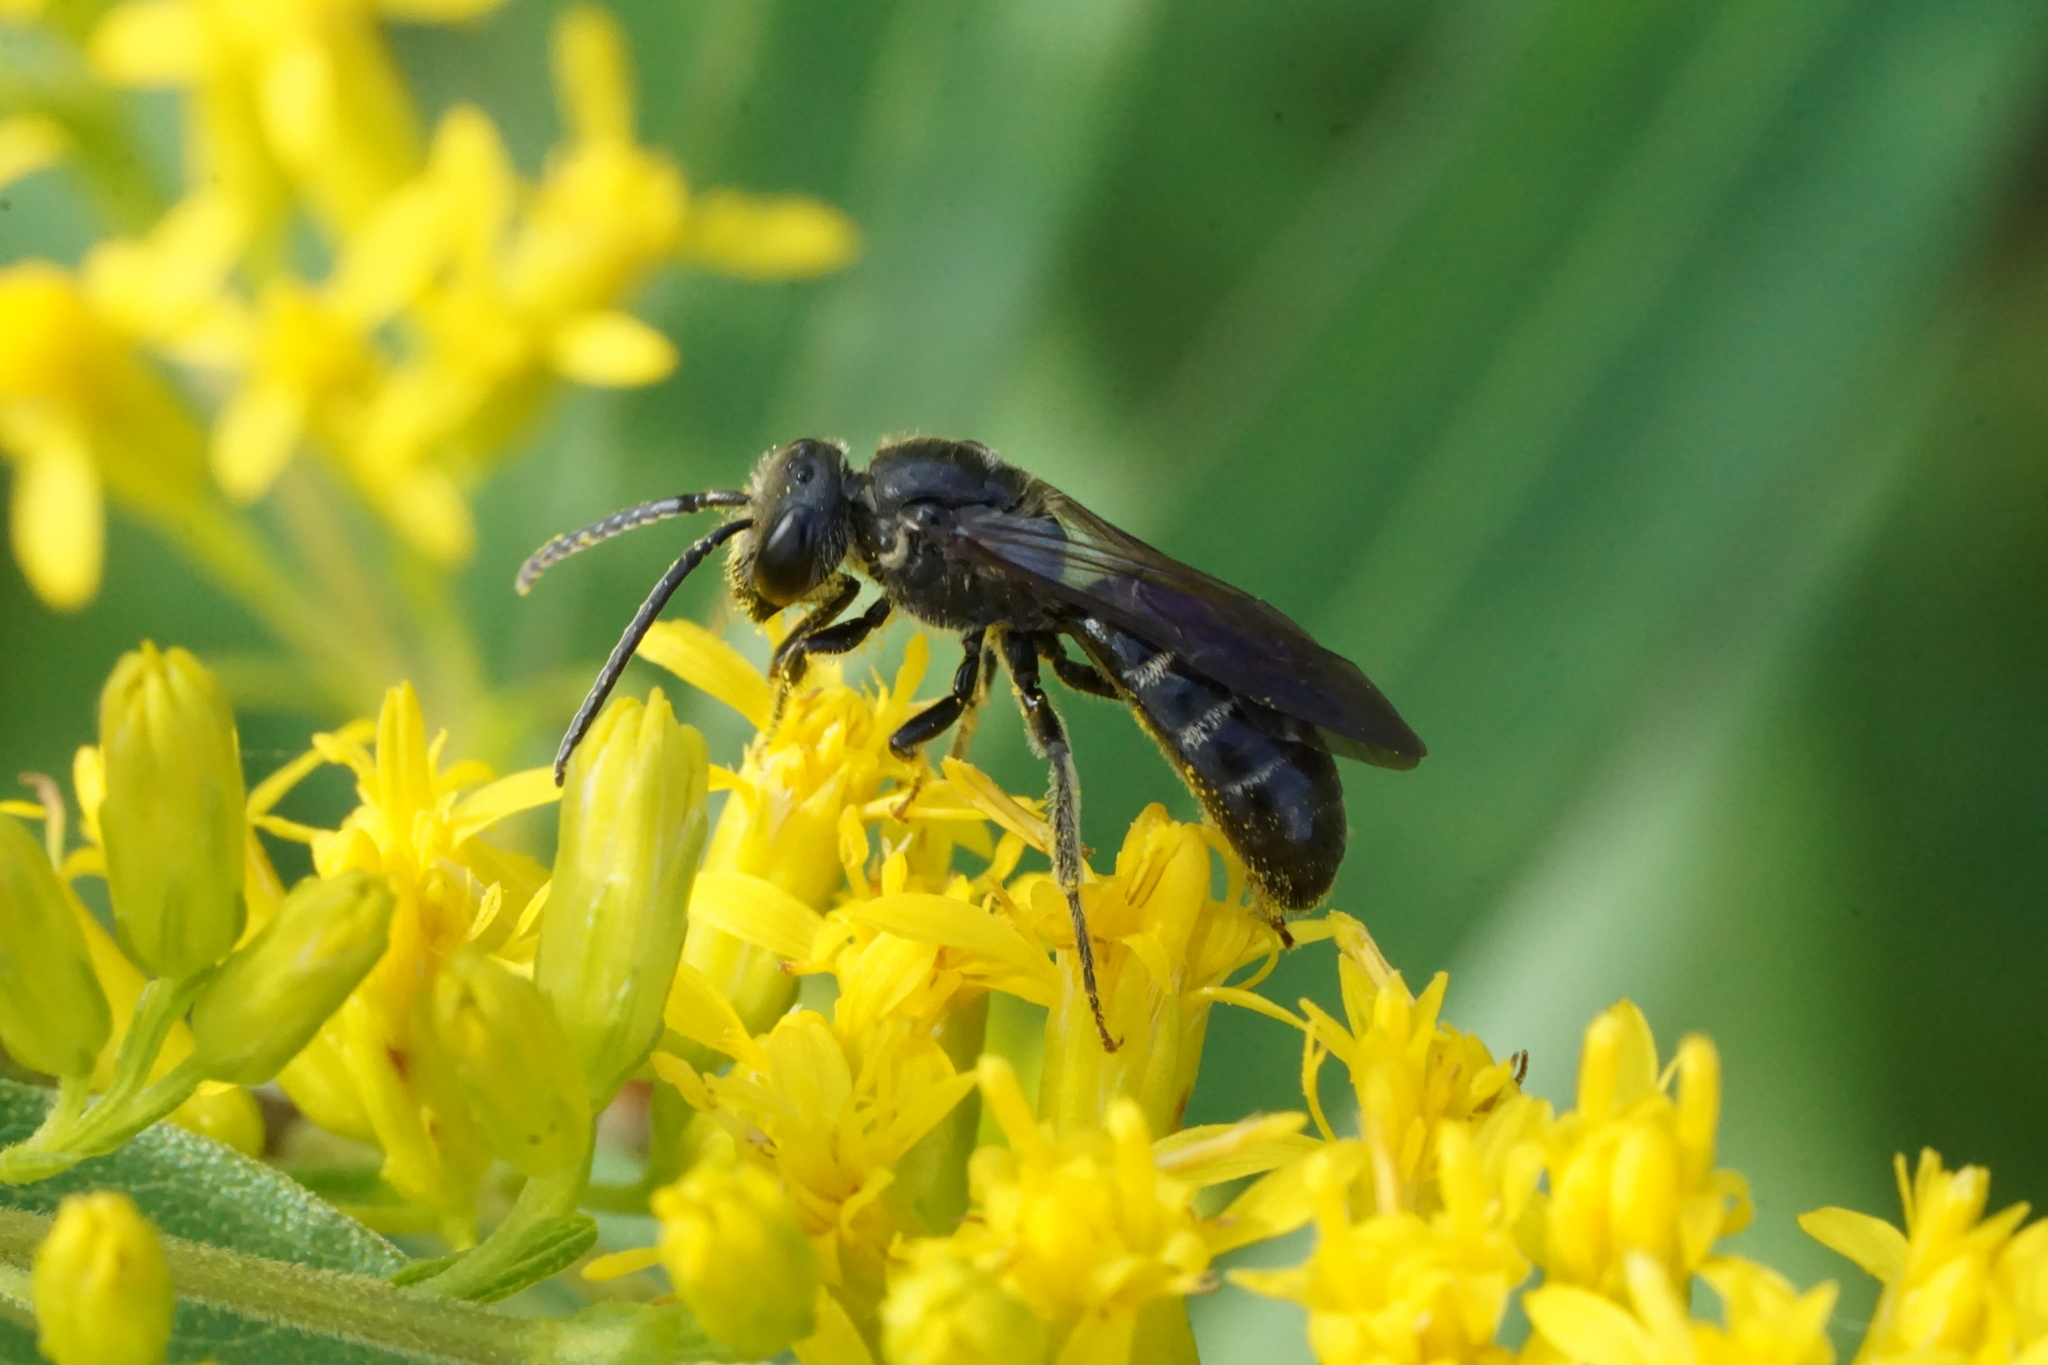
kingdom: Animalia
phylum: Arthropoda
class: Insecta
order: Hymenoptera
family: Halictidae
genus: Lasioglossum
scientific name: Lasioglossum fuscipenne
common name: Brown-winged sweat bee
